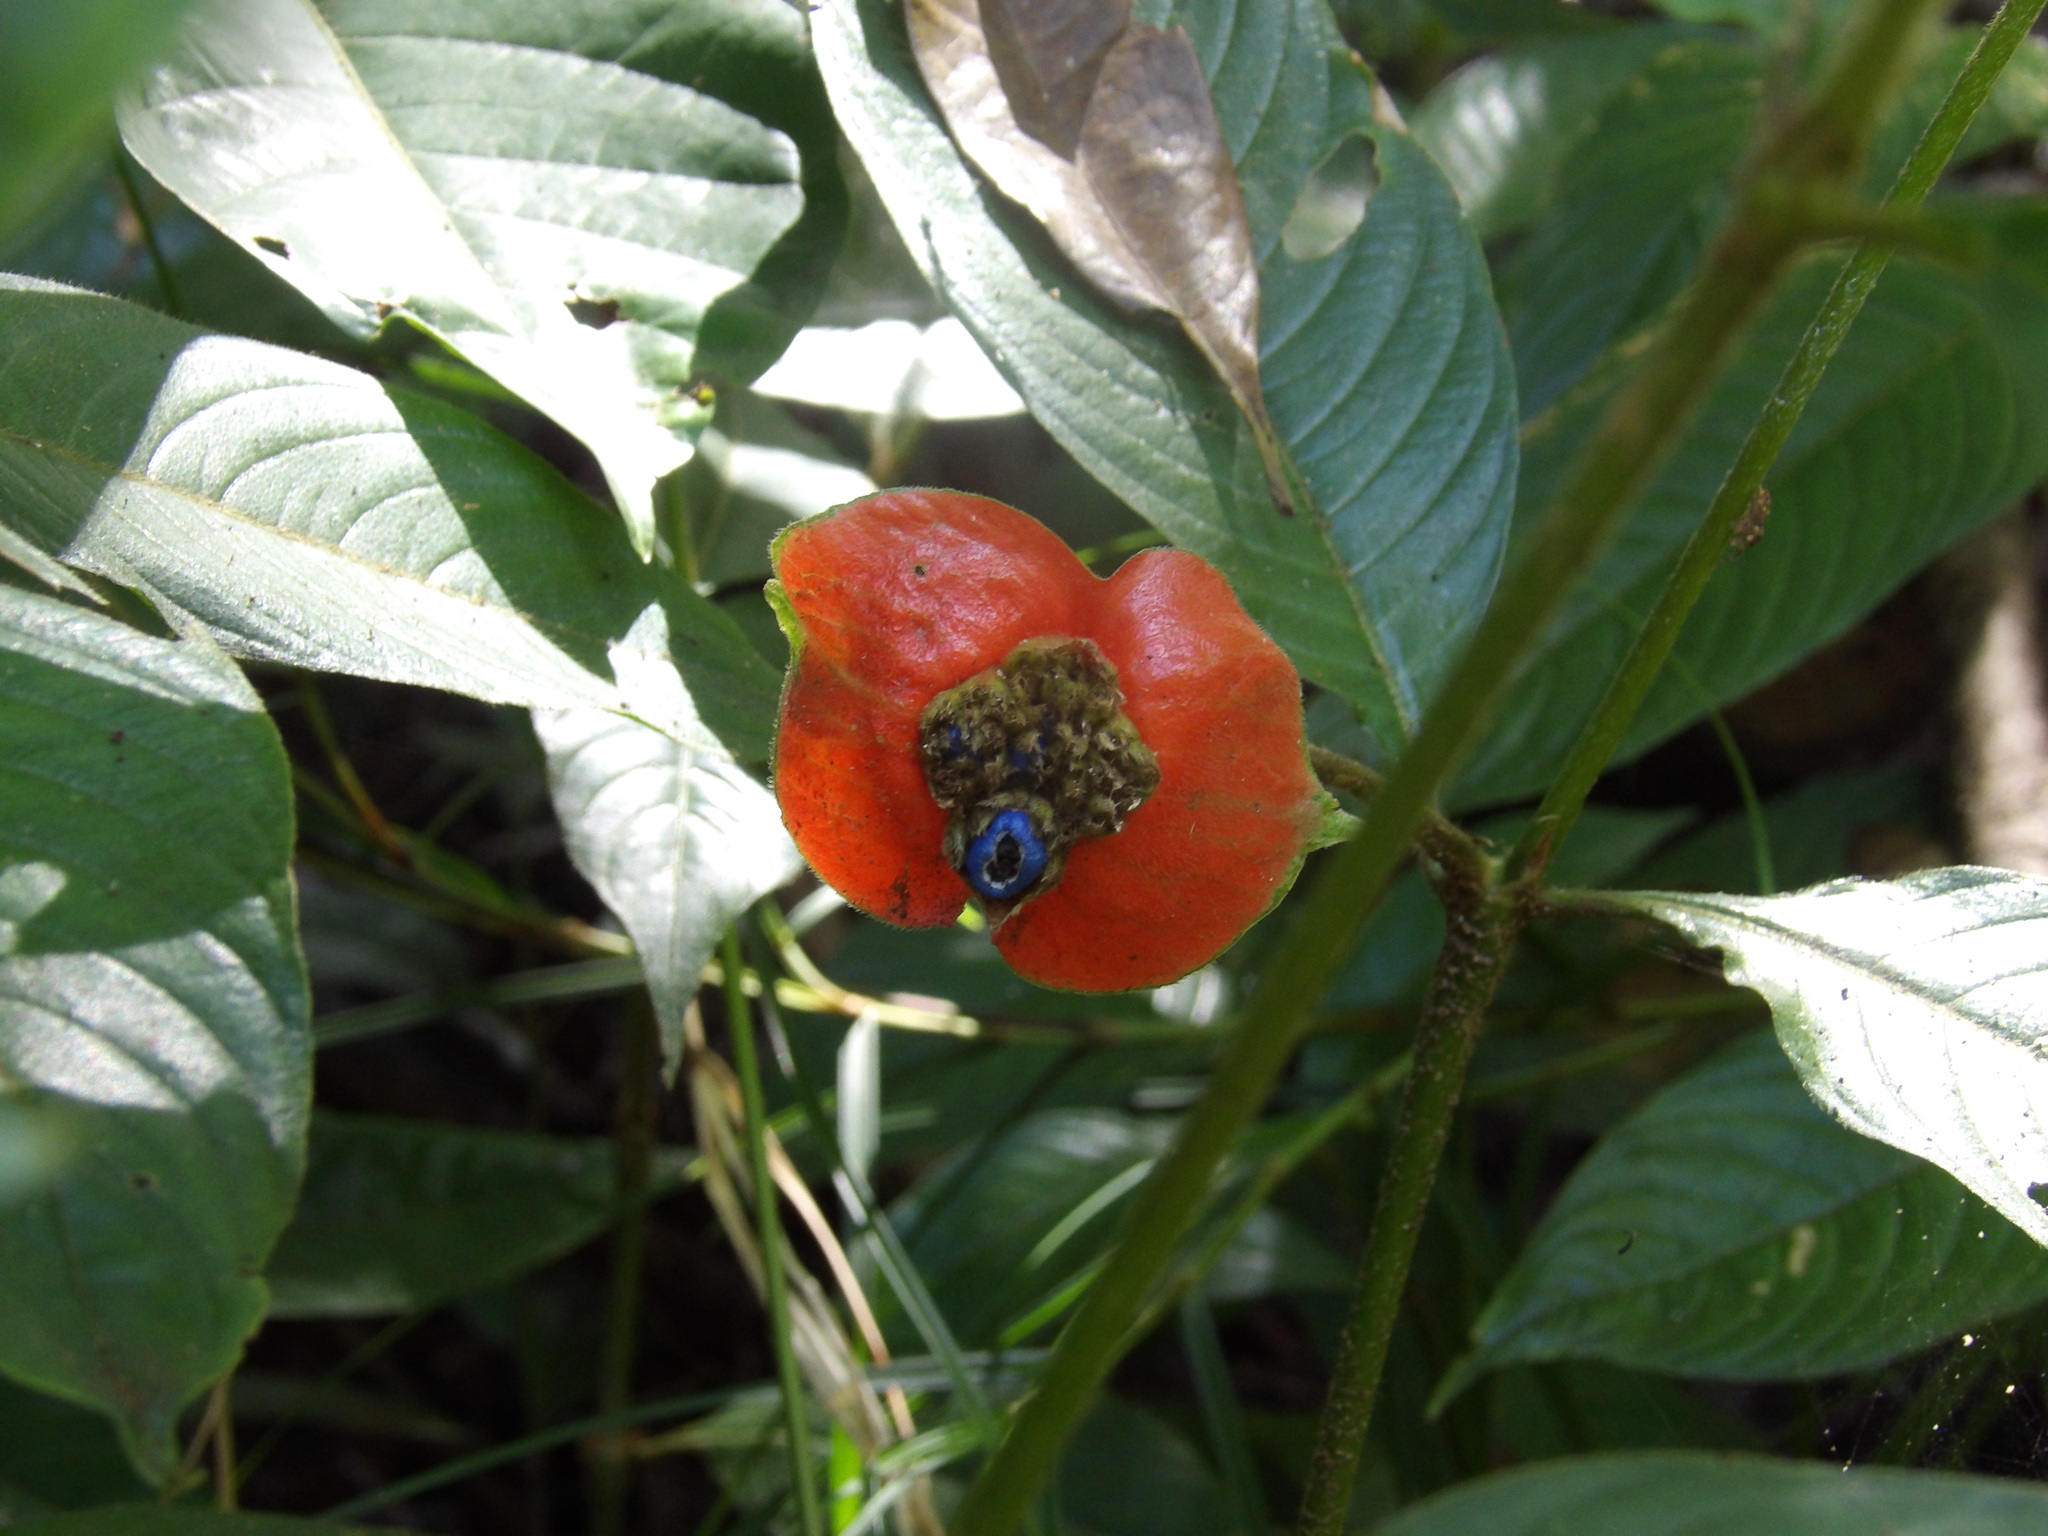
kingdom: Plantae
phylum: Tracheophyta
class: Magnoliopsida
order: Gentianales
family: Rubiaceae
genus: Palicourea
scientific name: Palicourea tomentosa
